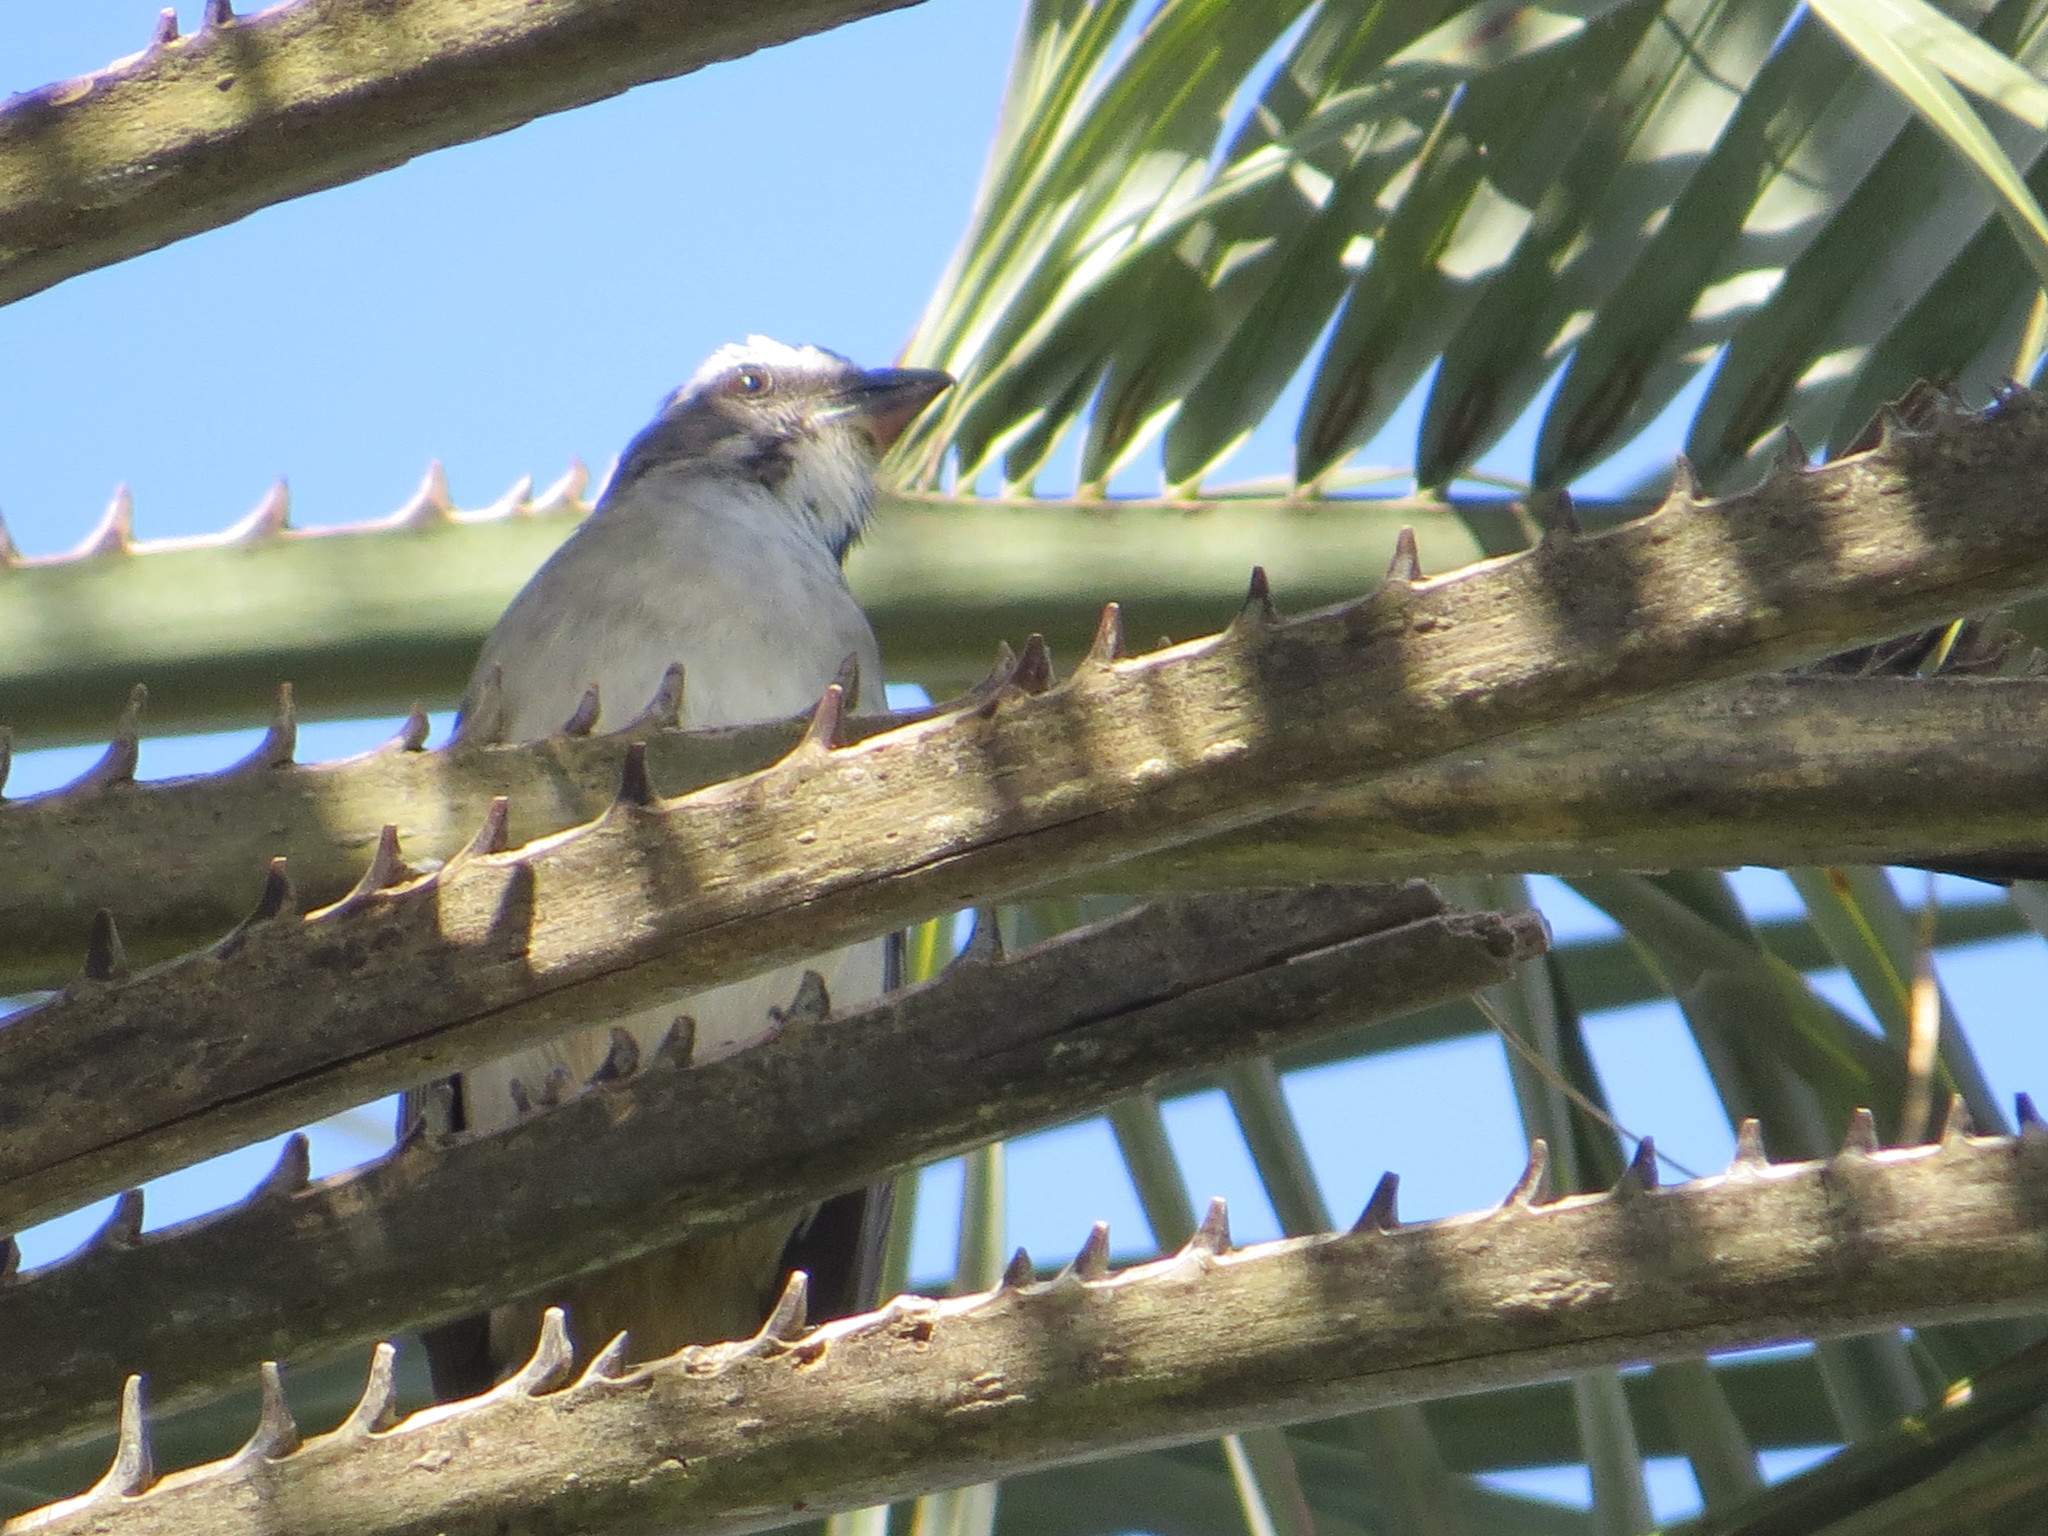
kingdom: Animalia
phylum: Chordata
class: Aves
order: Passeriformes
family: Thraupidae
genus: Saltator
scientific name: Saltator similis
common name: Green-winged saltator
